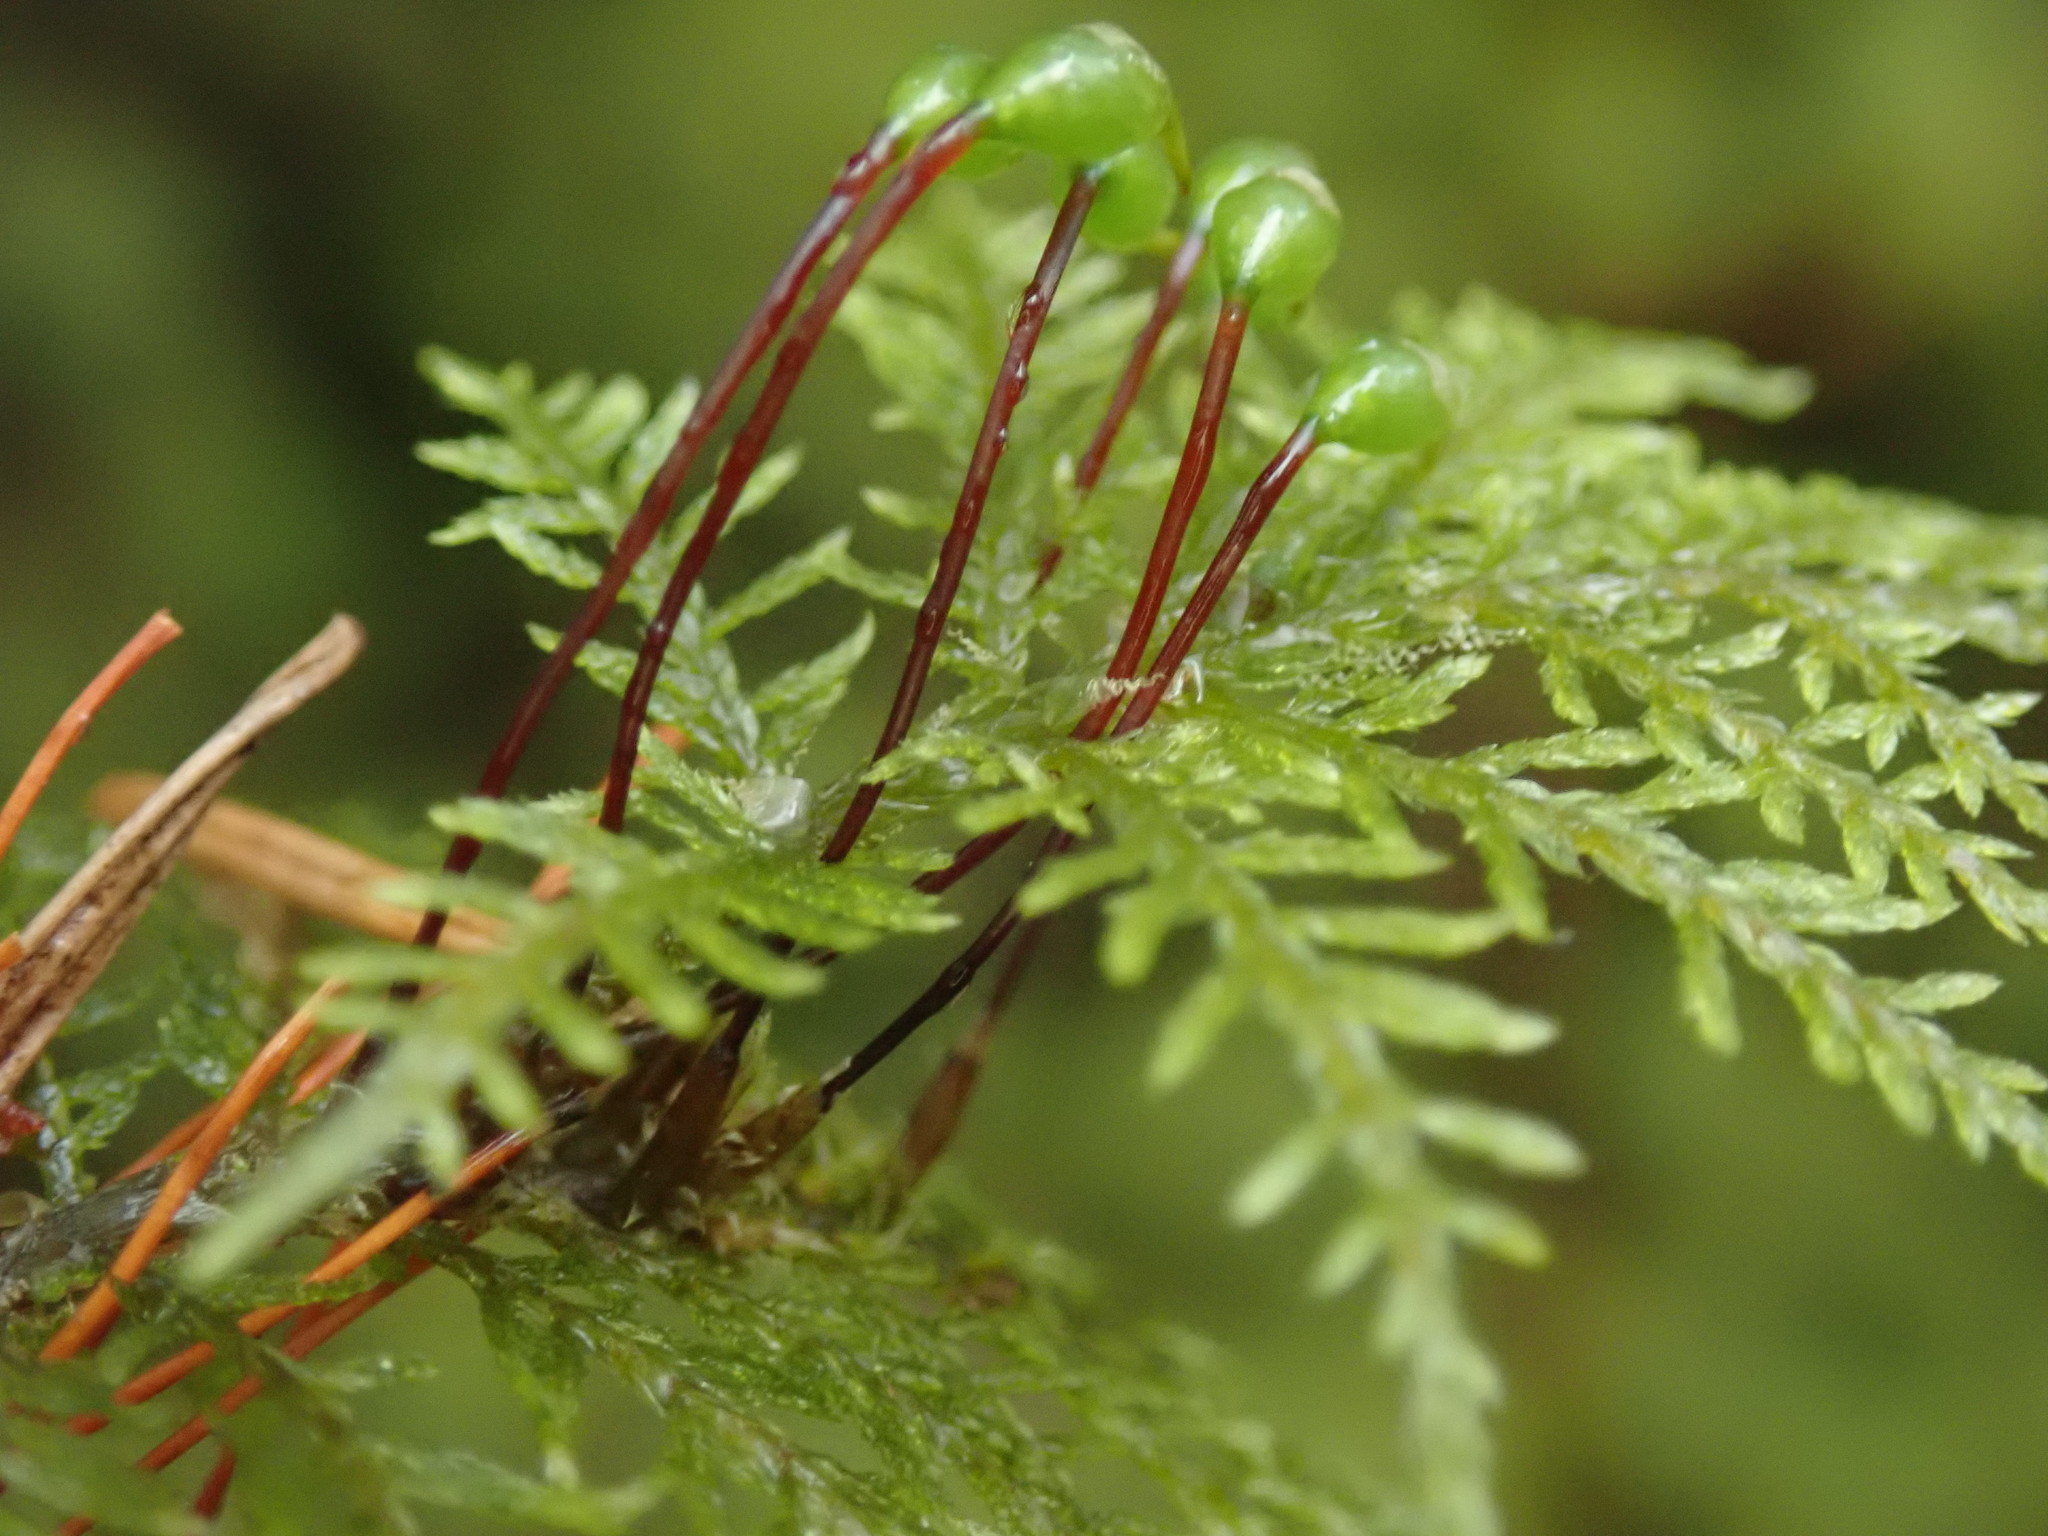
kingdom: Plantae
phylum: Bryophyta
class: Bryopsida
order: Hypnales
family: Hylocomiaceae
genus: Hylocomium
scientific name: Hylocomium splendens
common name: Stairstep moss
